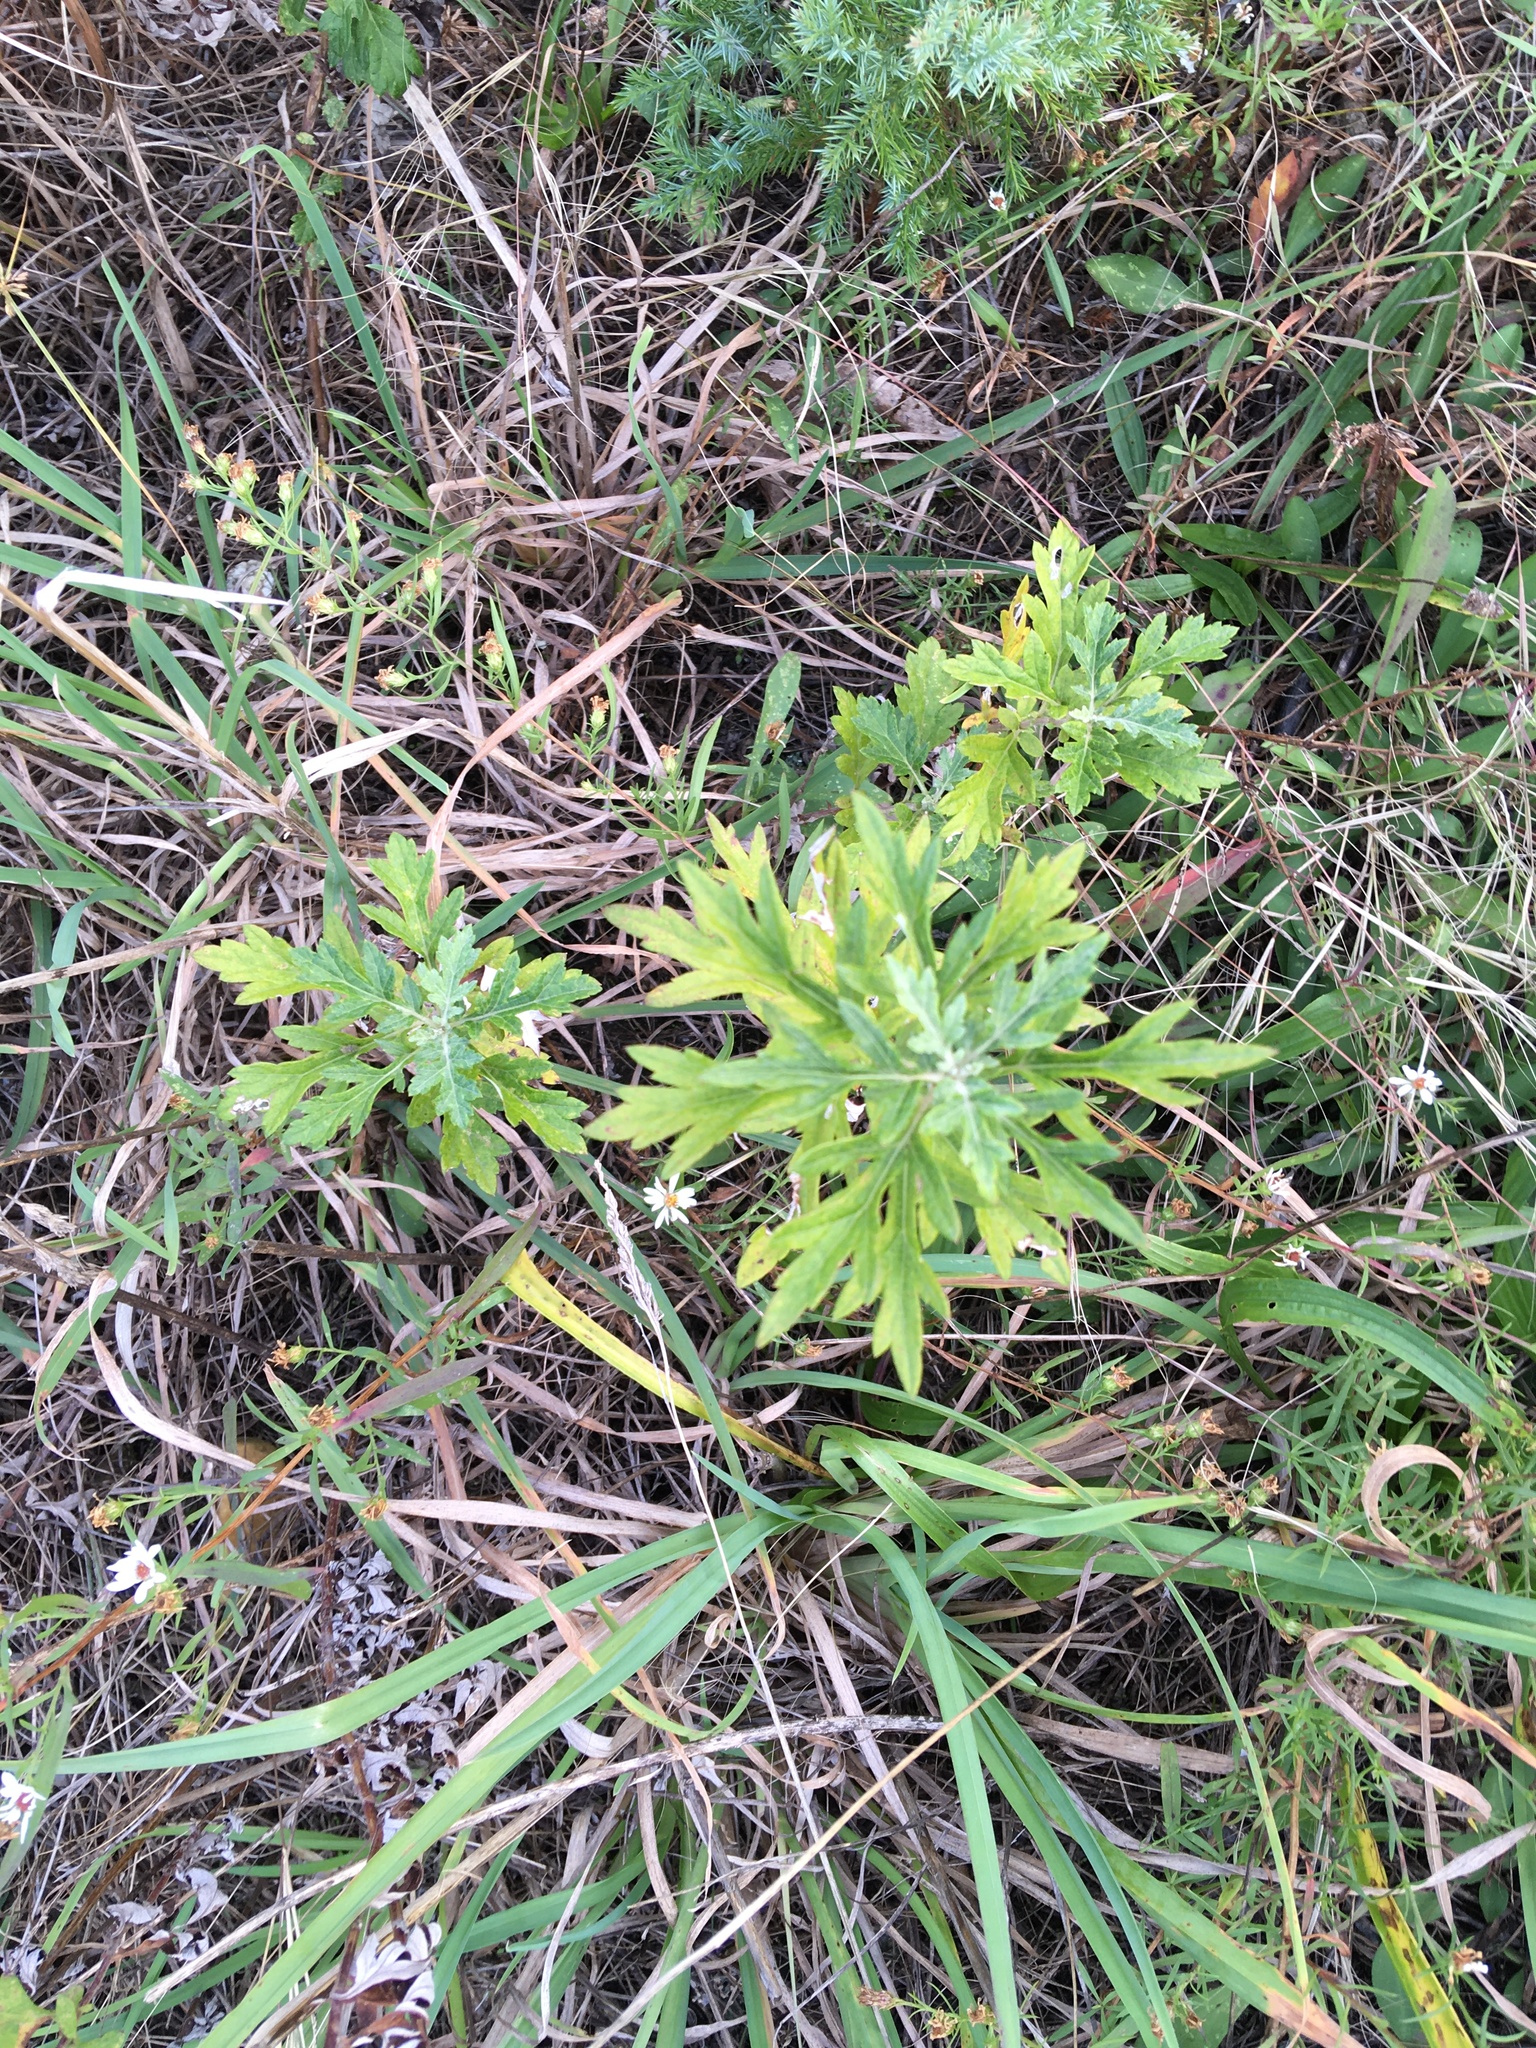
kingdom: Plantae
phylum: Tracheophyta
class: Magnoliopsida
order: Asterales
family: Asteraceae
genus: Artemisia
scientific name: Artemisia vulgaris
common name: Mugwort
